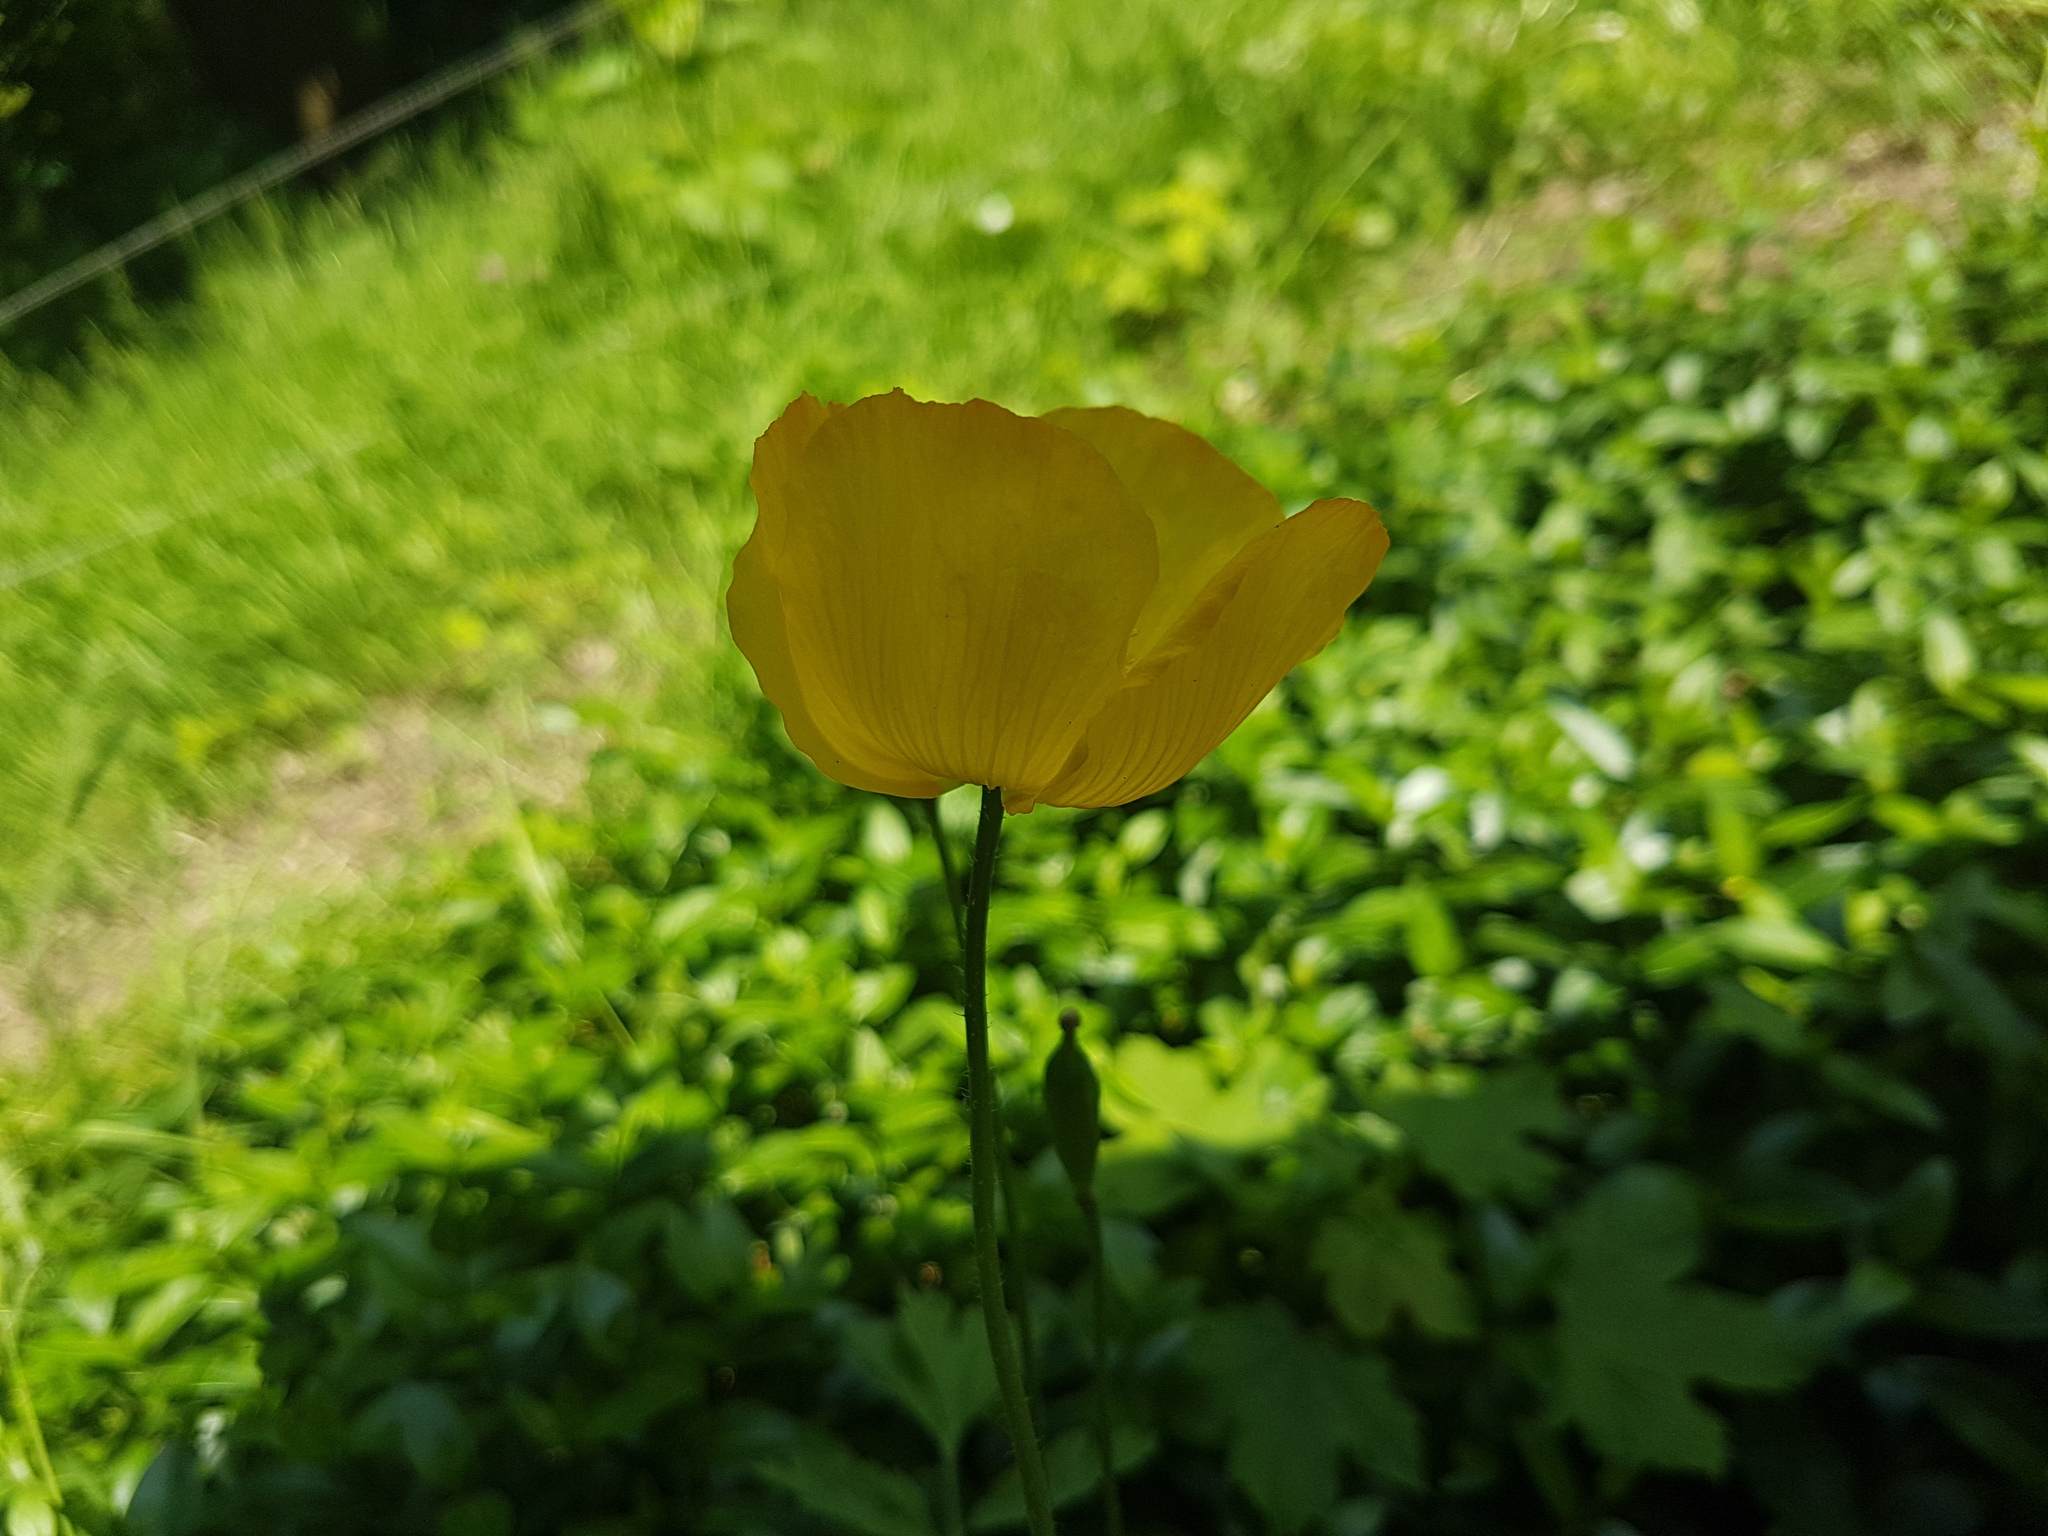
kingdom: Plantae
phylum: Tracheophyta
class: Magnoliopsida
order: Ranunculales
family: Papaveraceae
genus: Papaver
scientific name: Papaver cambricum
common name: Poppy
